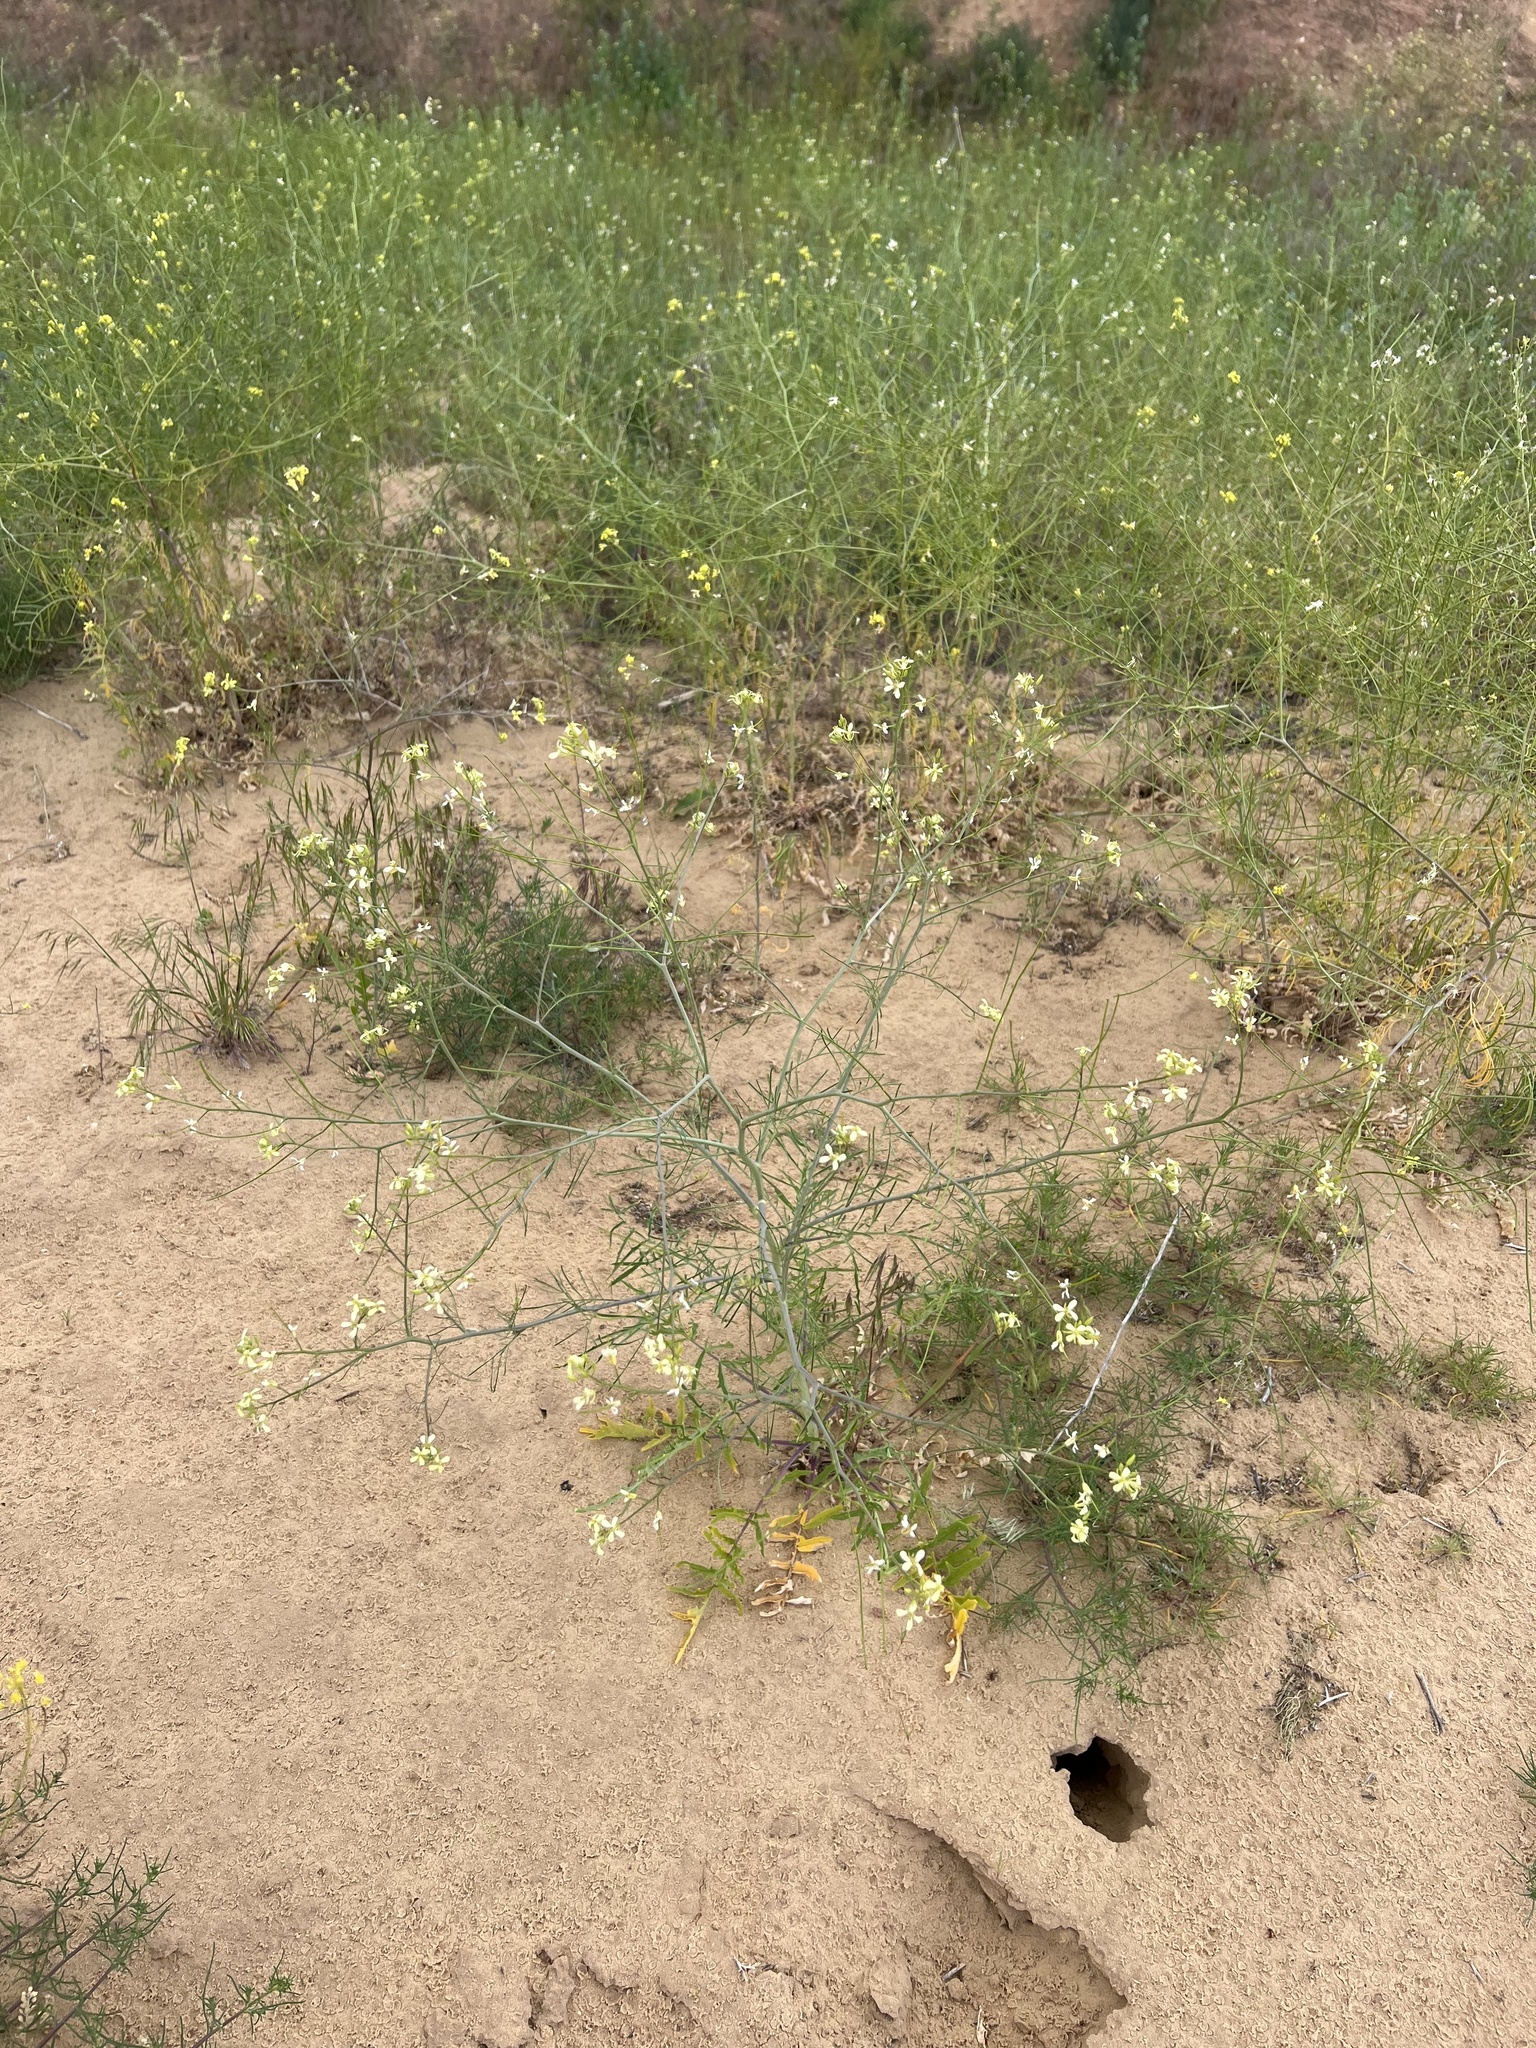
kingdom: Plantae
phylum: Tracheophyta
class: Magnoliopsida
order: Brassicales
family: Brassicaceae
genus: Sisymbrium
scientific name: Sisymbrium altissimum
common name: Tall rocket
